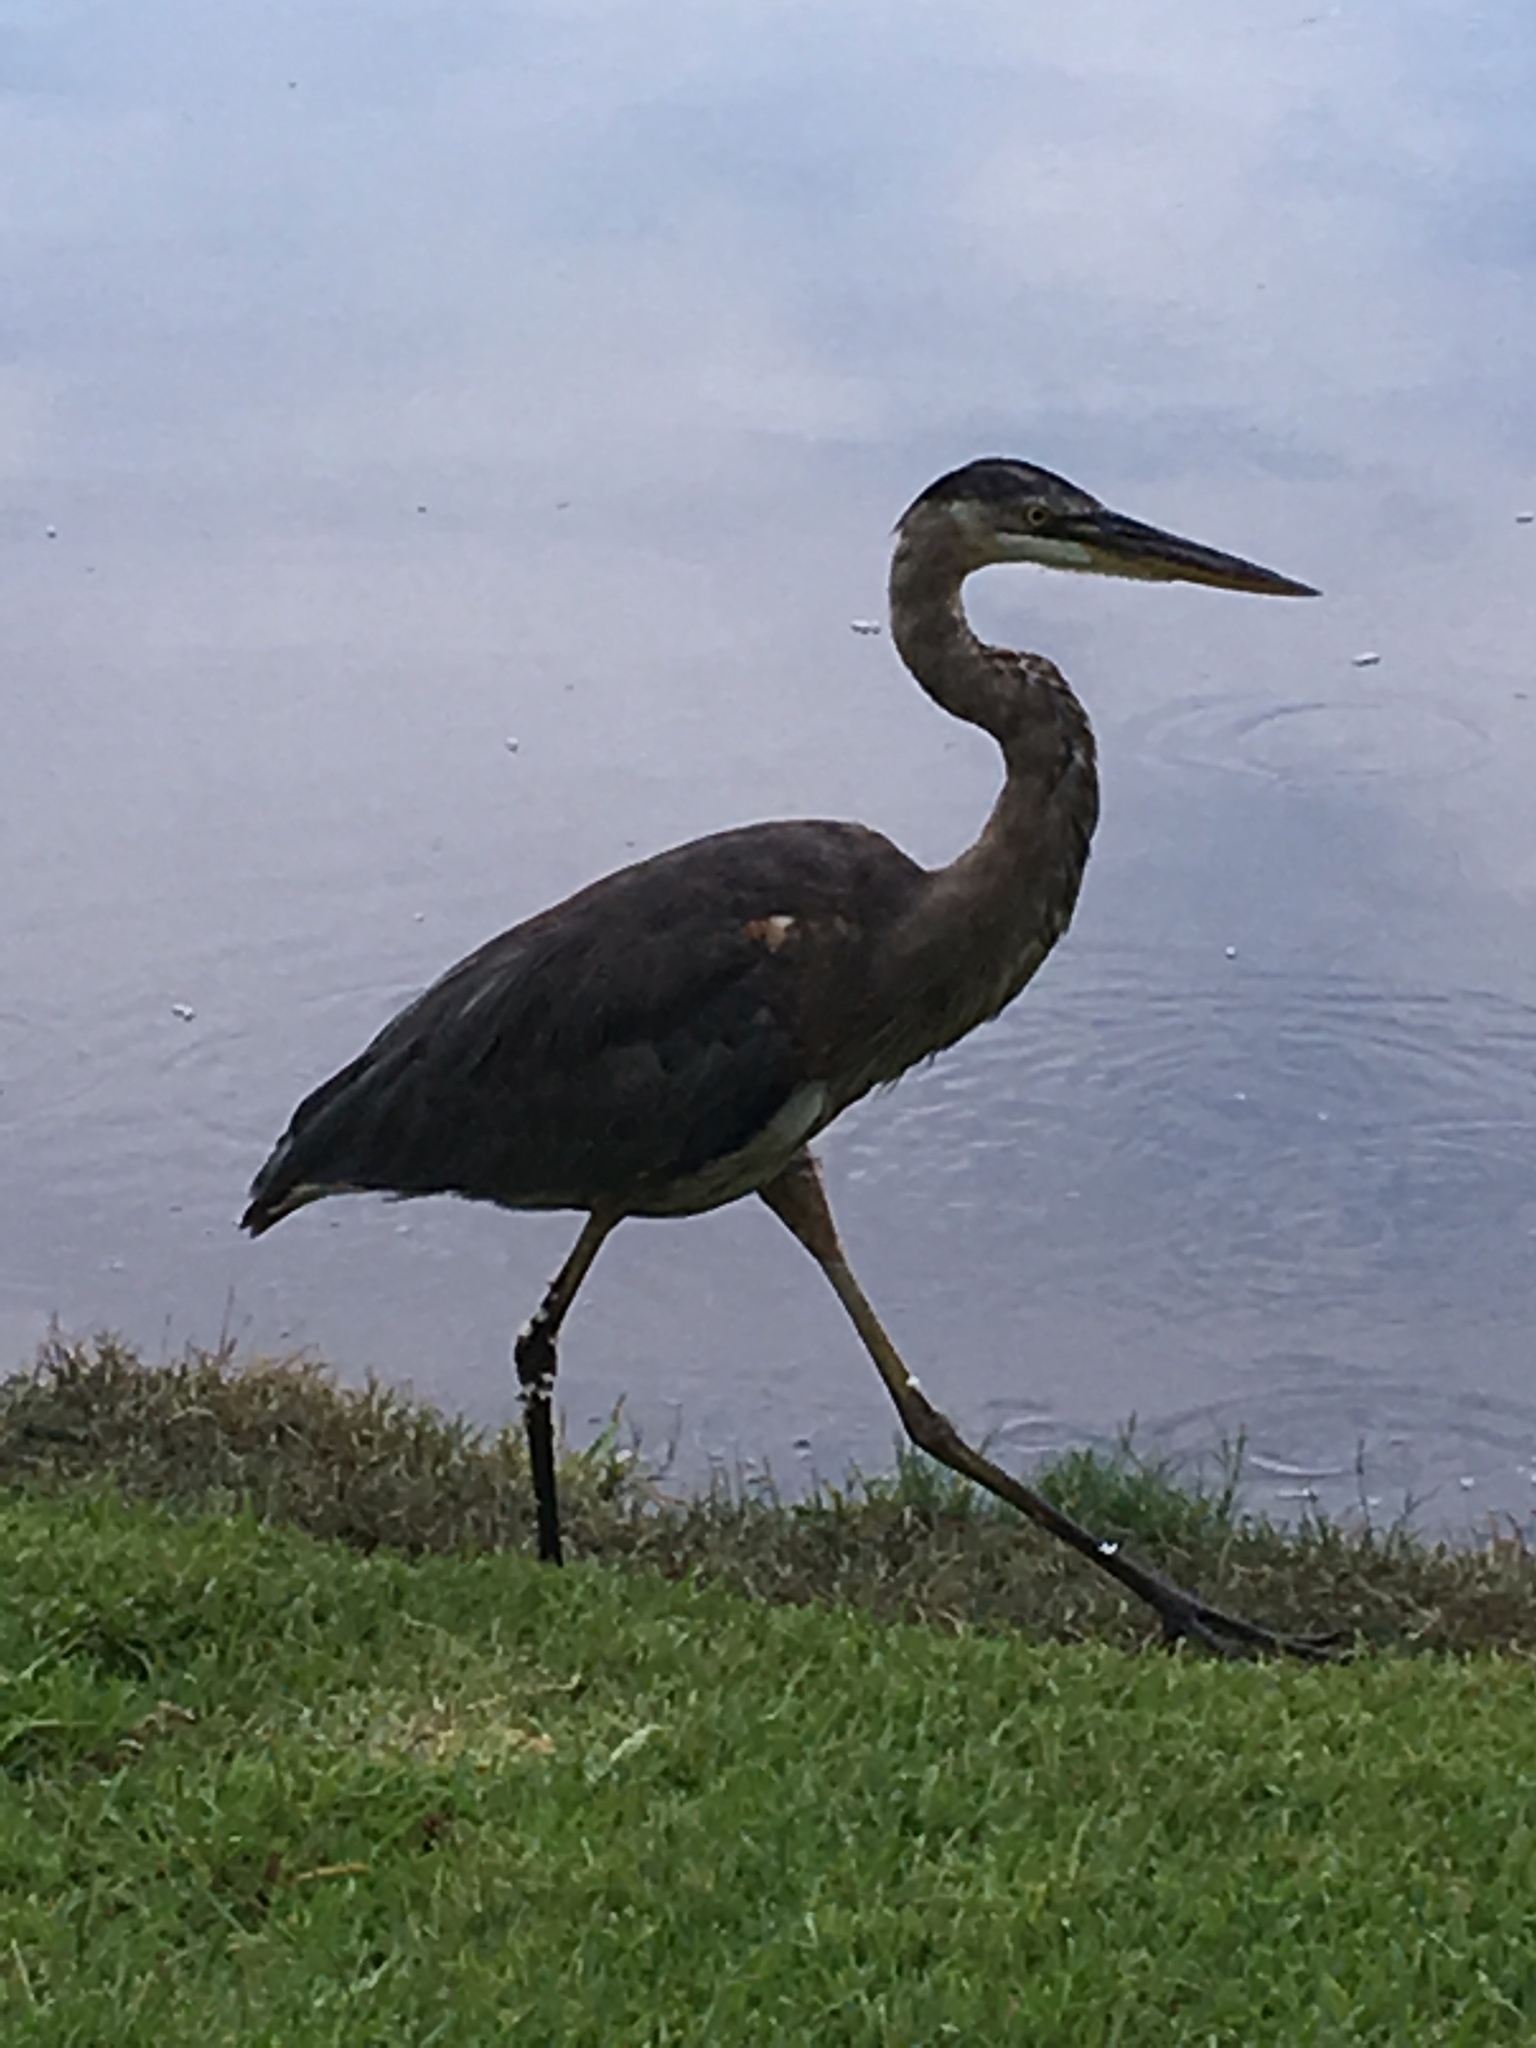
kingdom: Animalia
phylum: Chordata
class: Aves
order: Pelecaniformes
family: Ardeidae
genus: Ardea
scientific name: Ardea herodias
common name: Great blue heron
